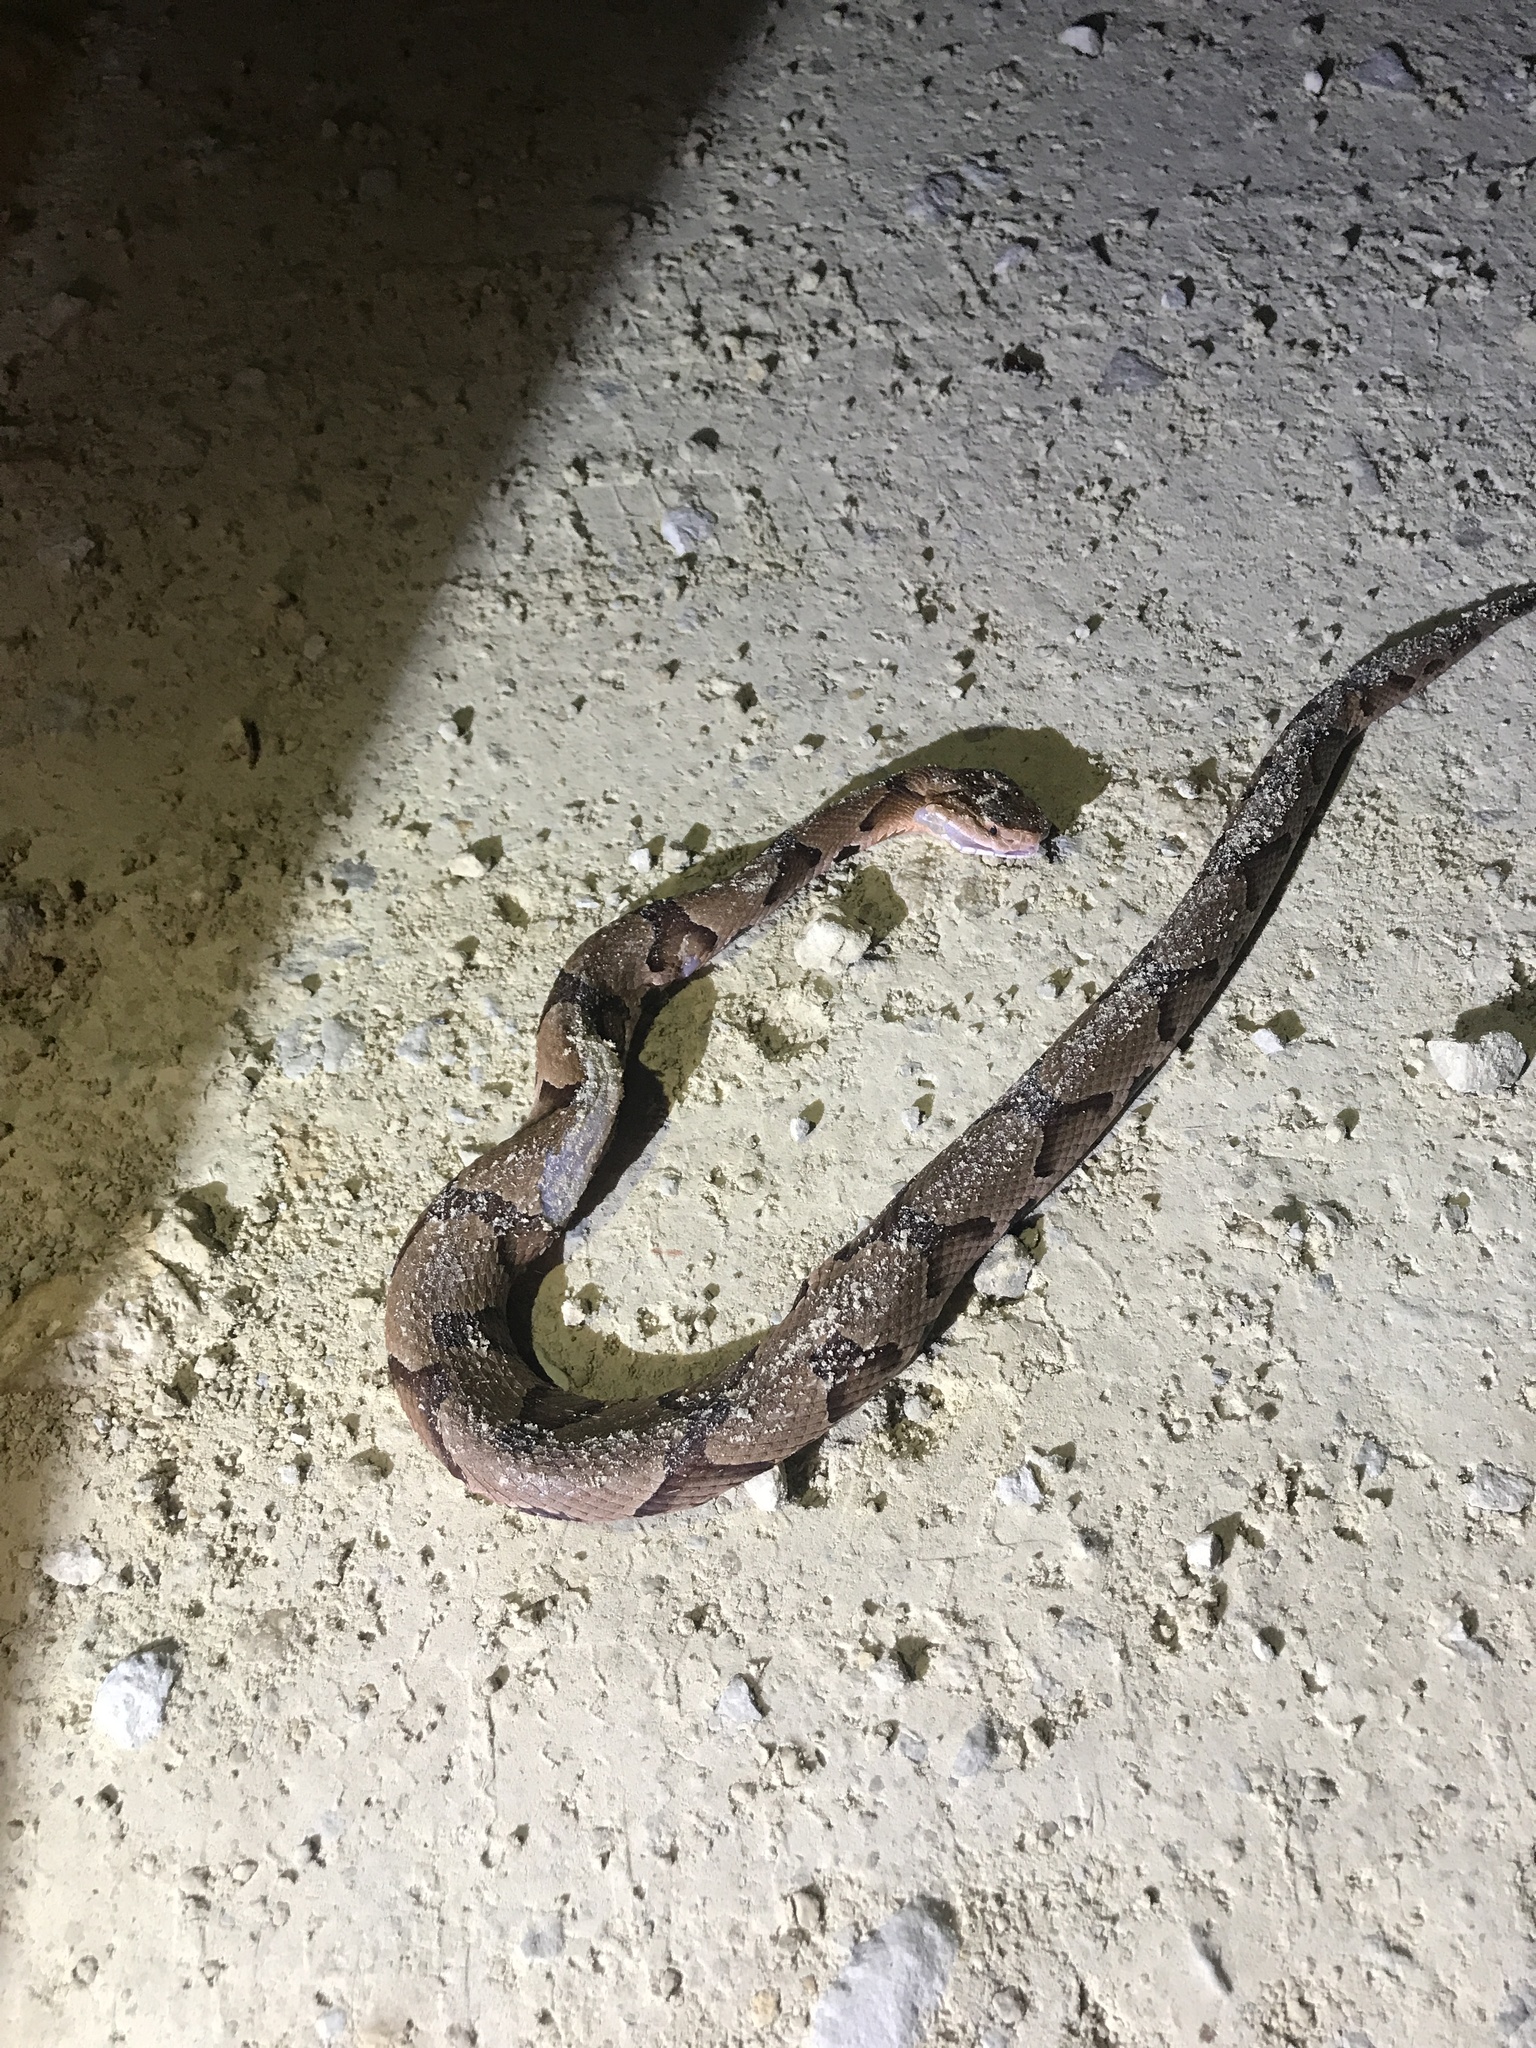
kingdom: Animalia
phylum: Chordata
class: Squamata
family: Viperidae
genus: Agkistrodon
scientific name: Agkistrodon contortrix
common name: Northern copperhead
